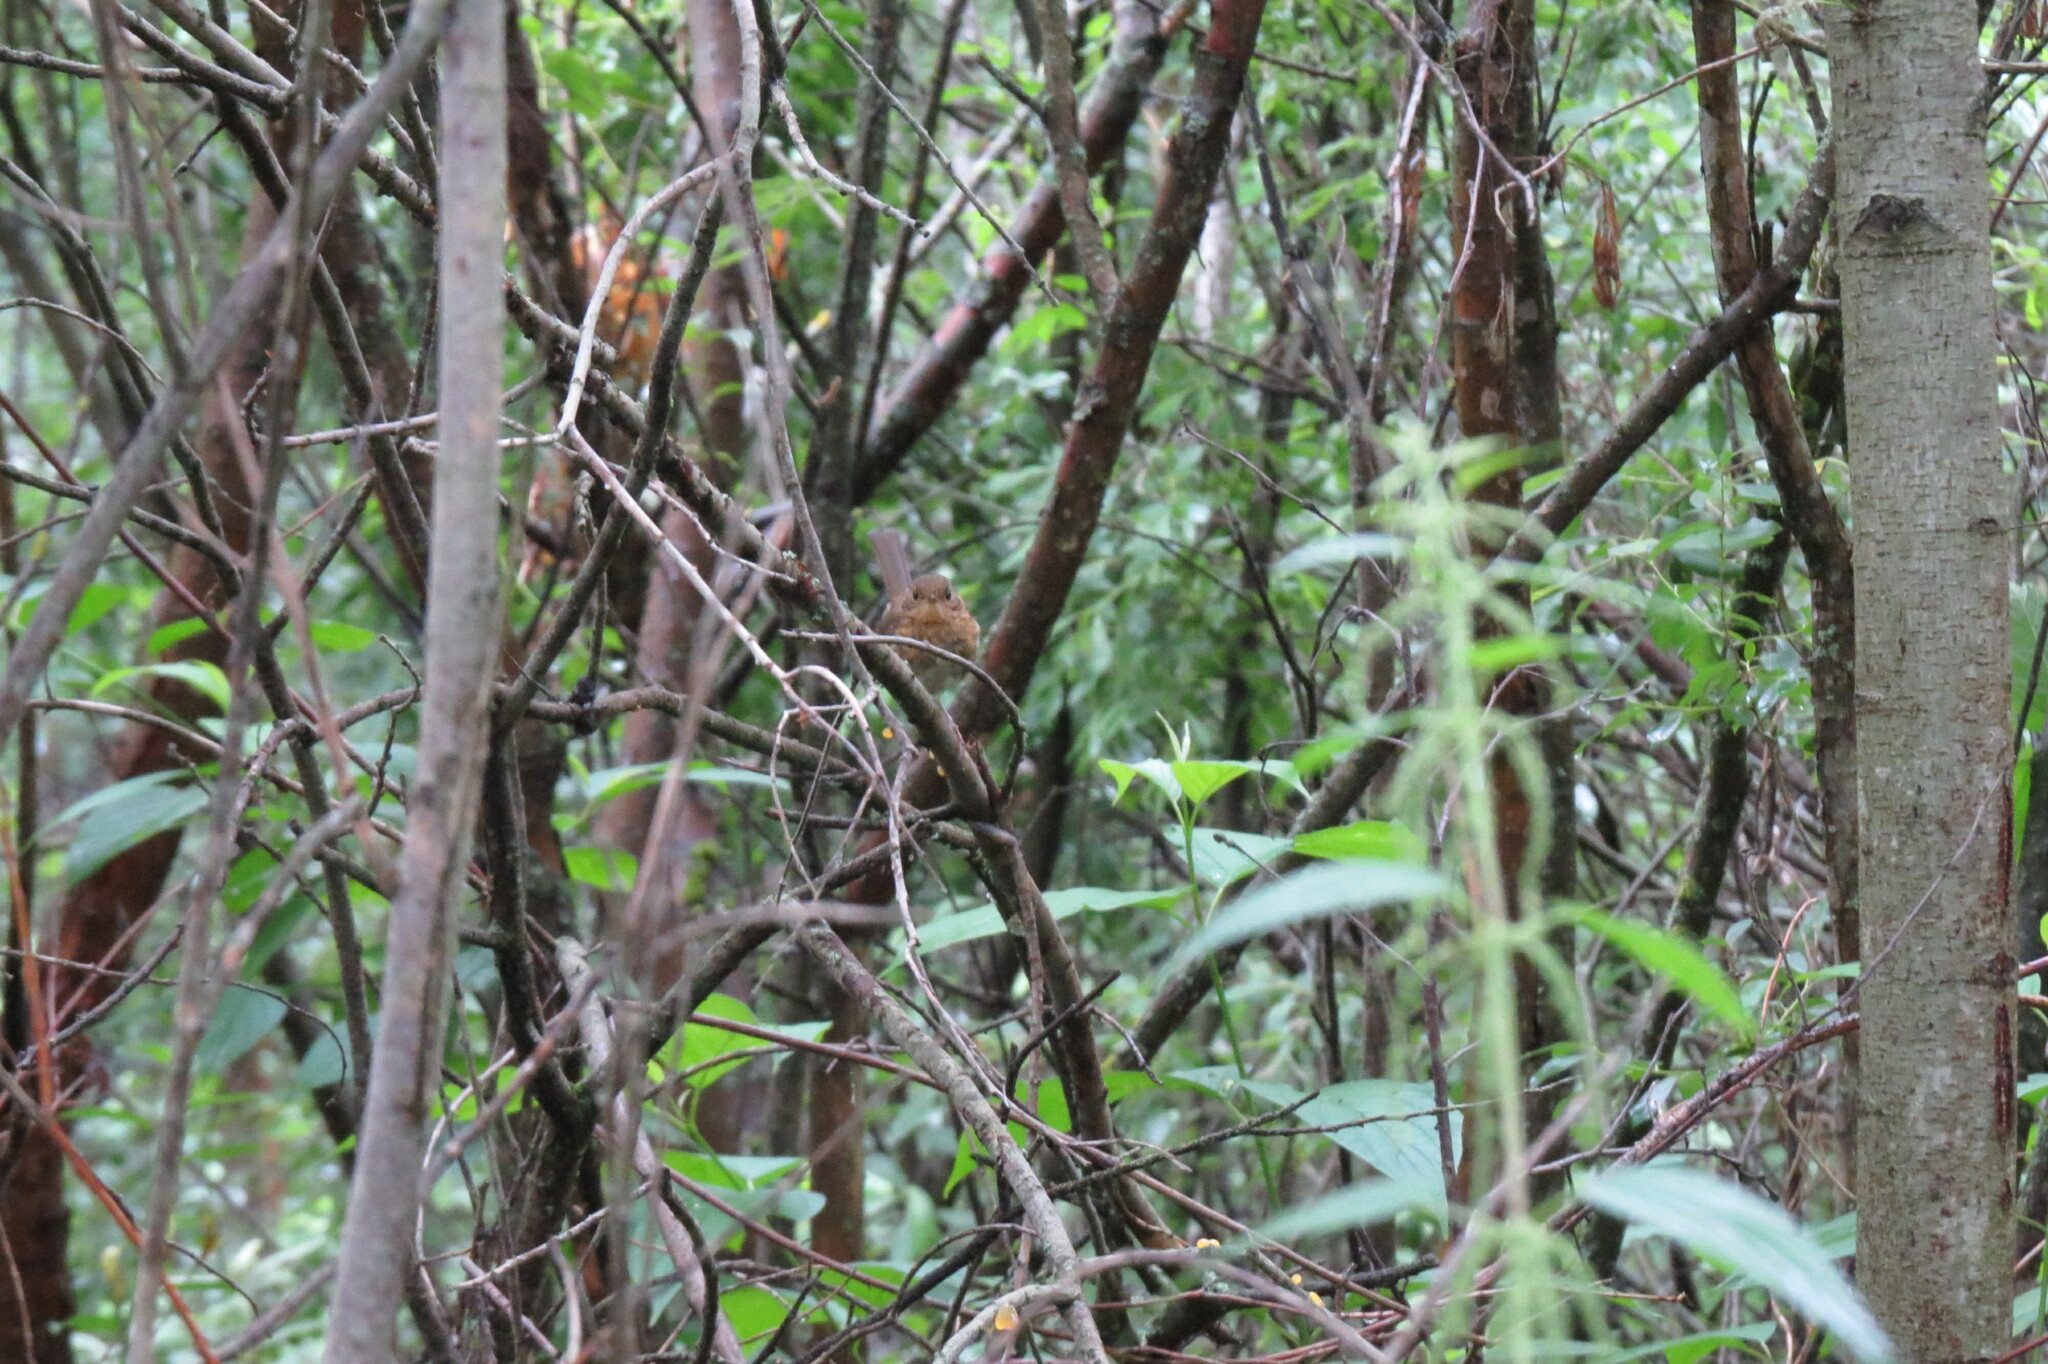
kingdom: Animalia
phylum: Chordata
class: Aves
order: Passeriformes
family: Muscicapidae
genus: Erithacus
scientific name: Erithacus rubecula
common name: European robin
